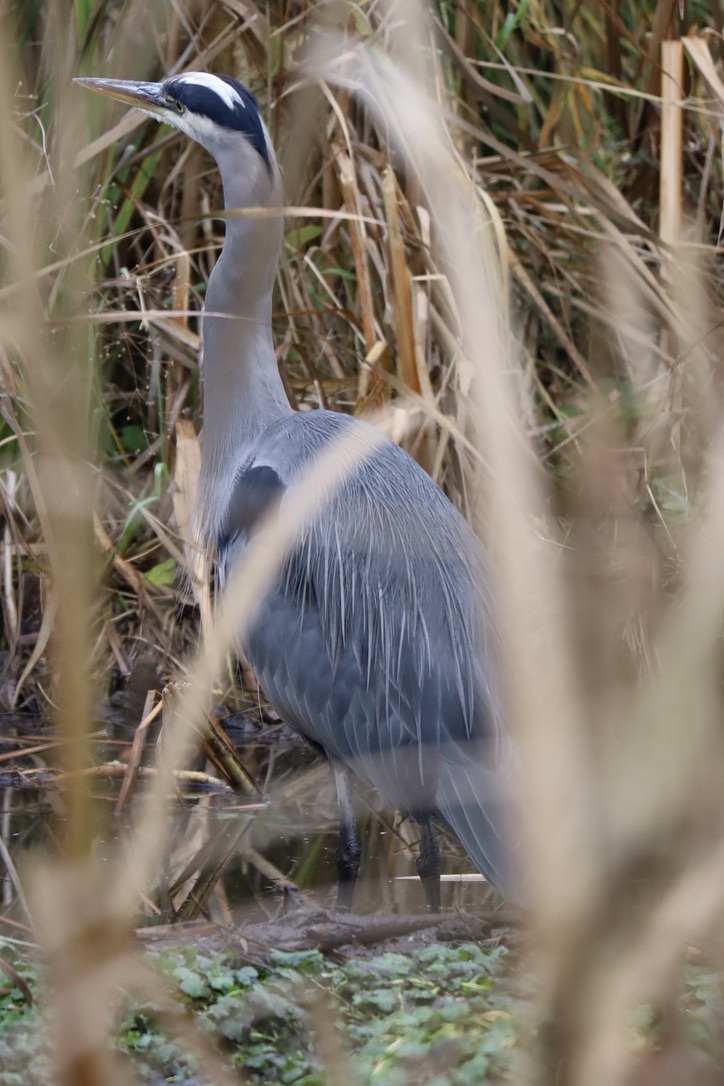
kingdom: Animalia
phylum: Chordata
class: Aves
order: Pelecaniformes
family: Ardeidae
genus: Ardea
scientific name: Ardea herodias
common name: Great blue heron
